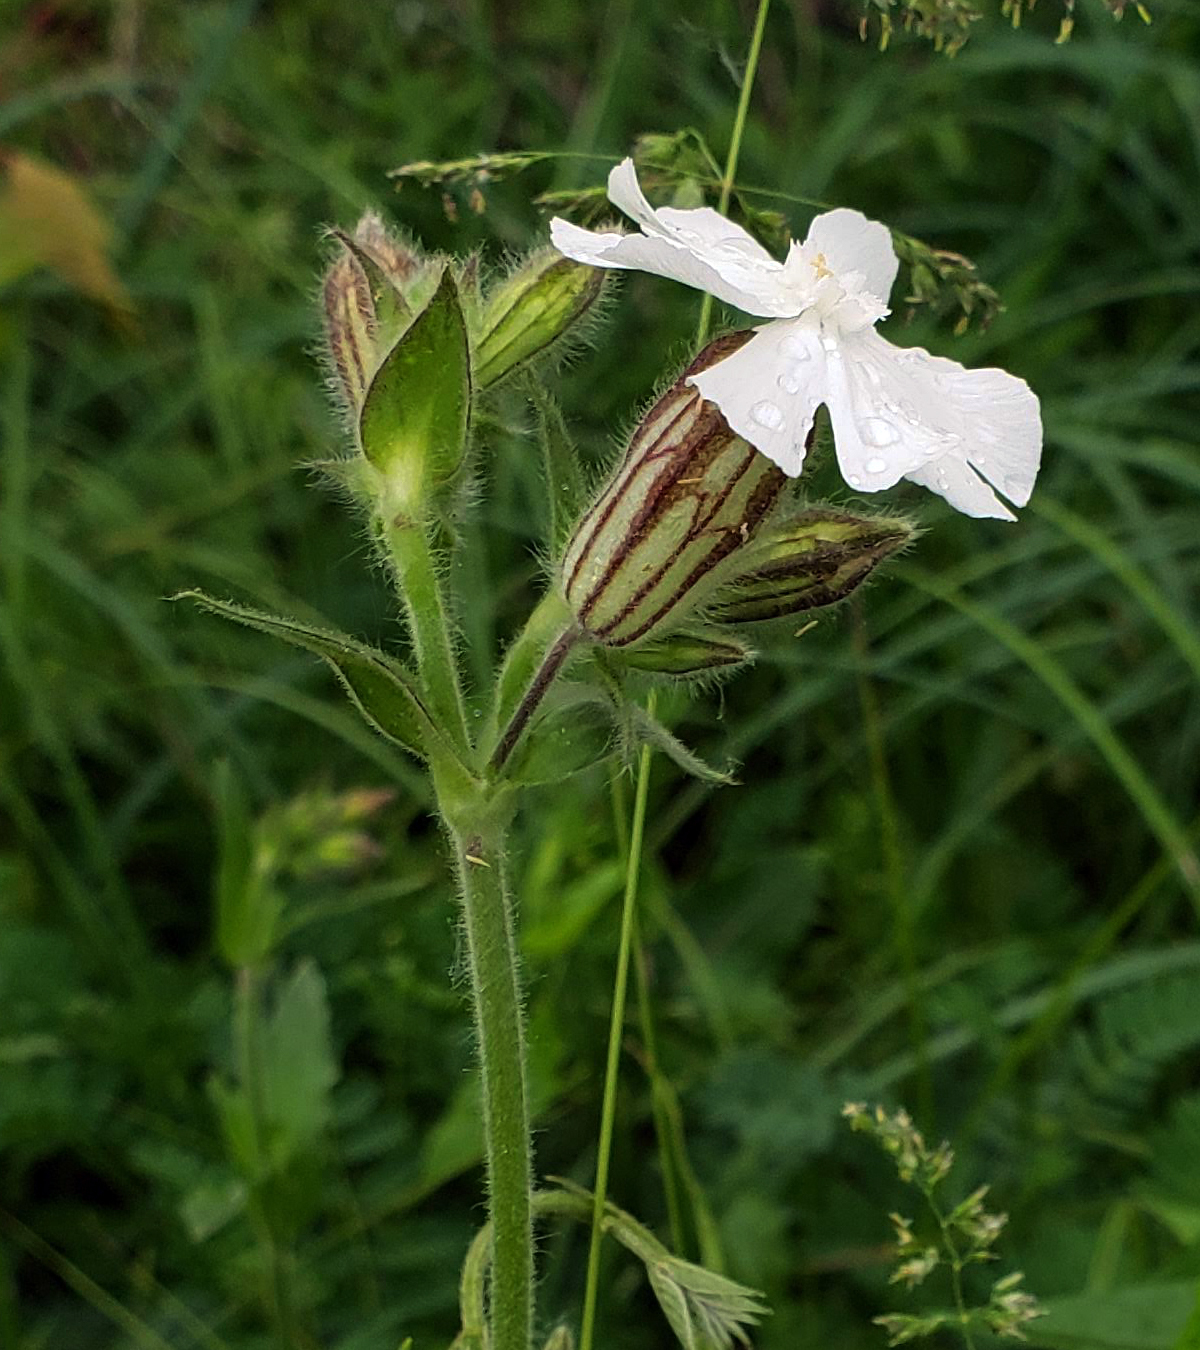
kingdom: Plantae
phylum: Tracheophyta
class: Magnoliopsida
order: Caryophyllales
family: Caryophyllaceae
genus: Silene
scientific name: Silene latifolia
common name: White campion
